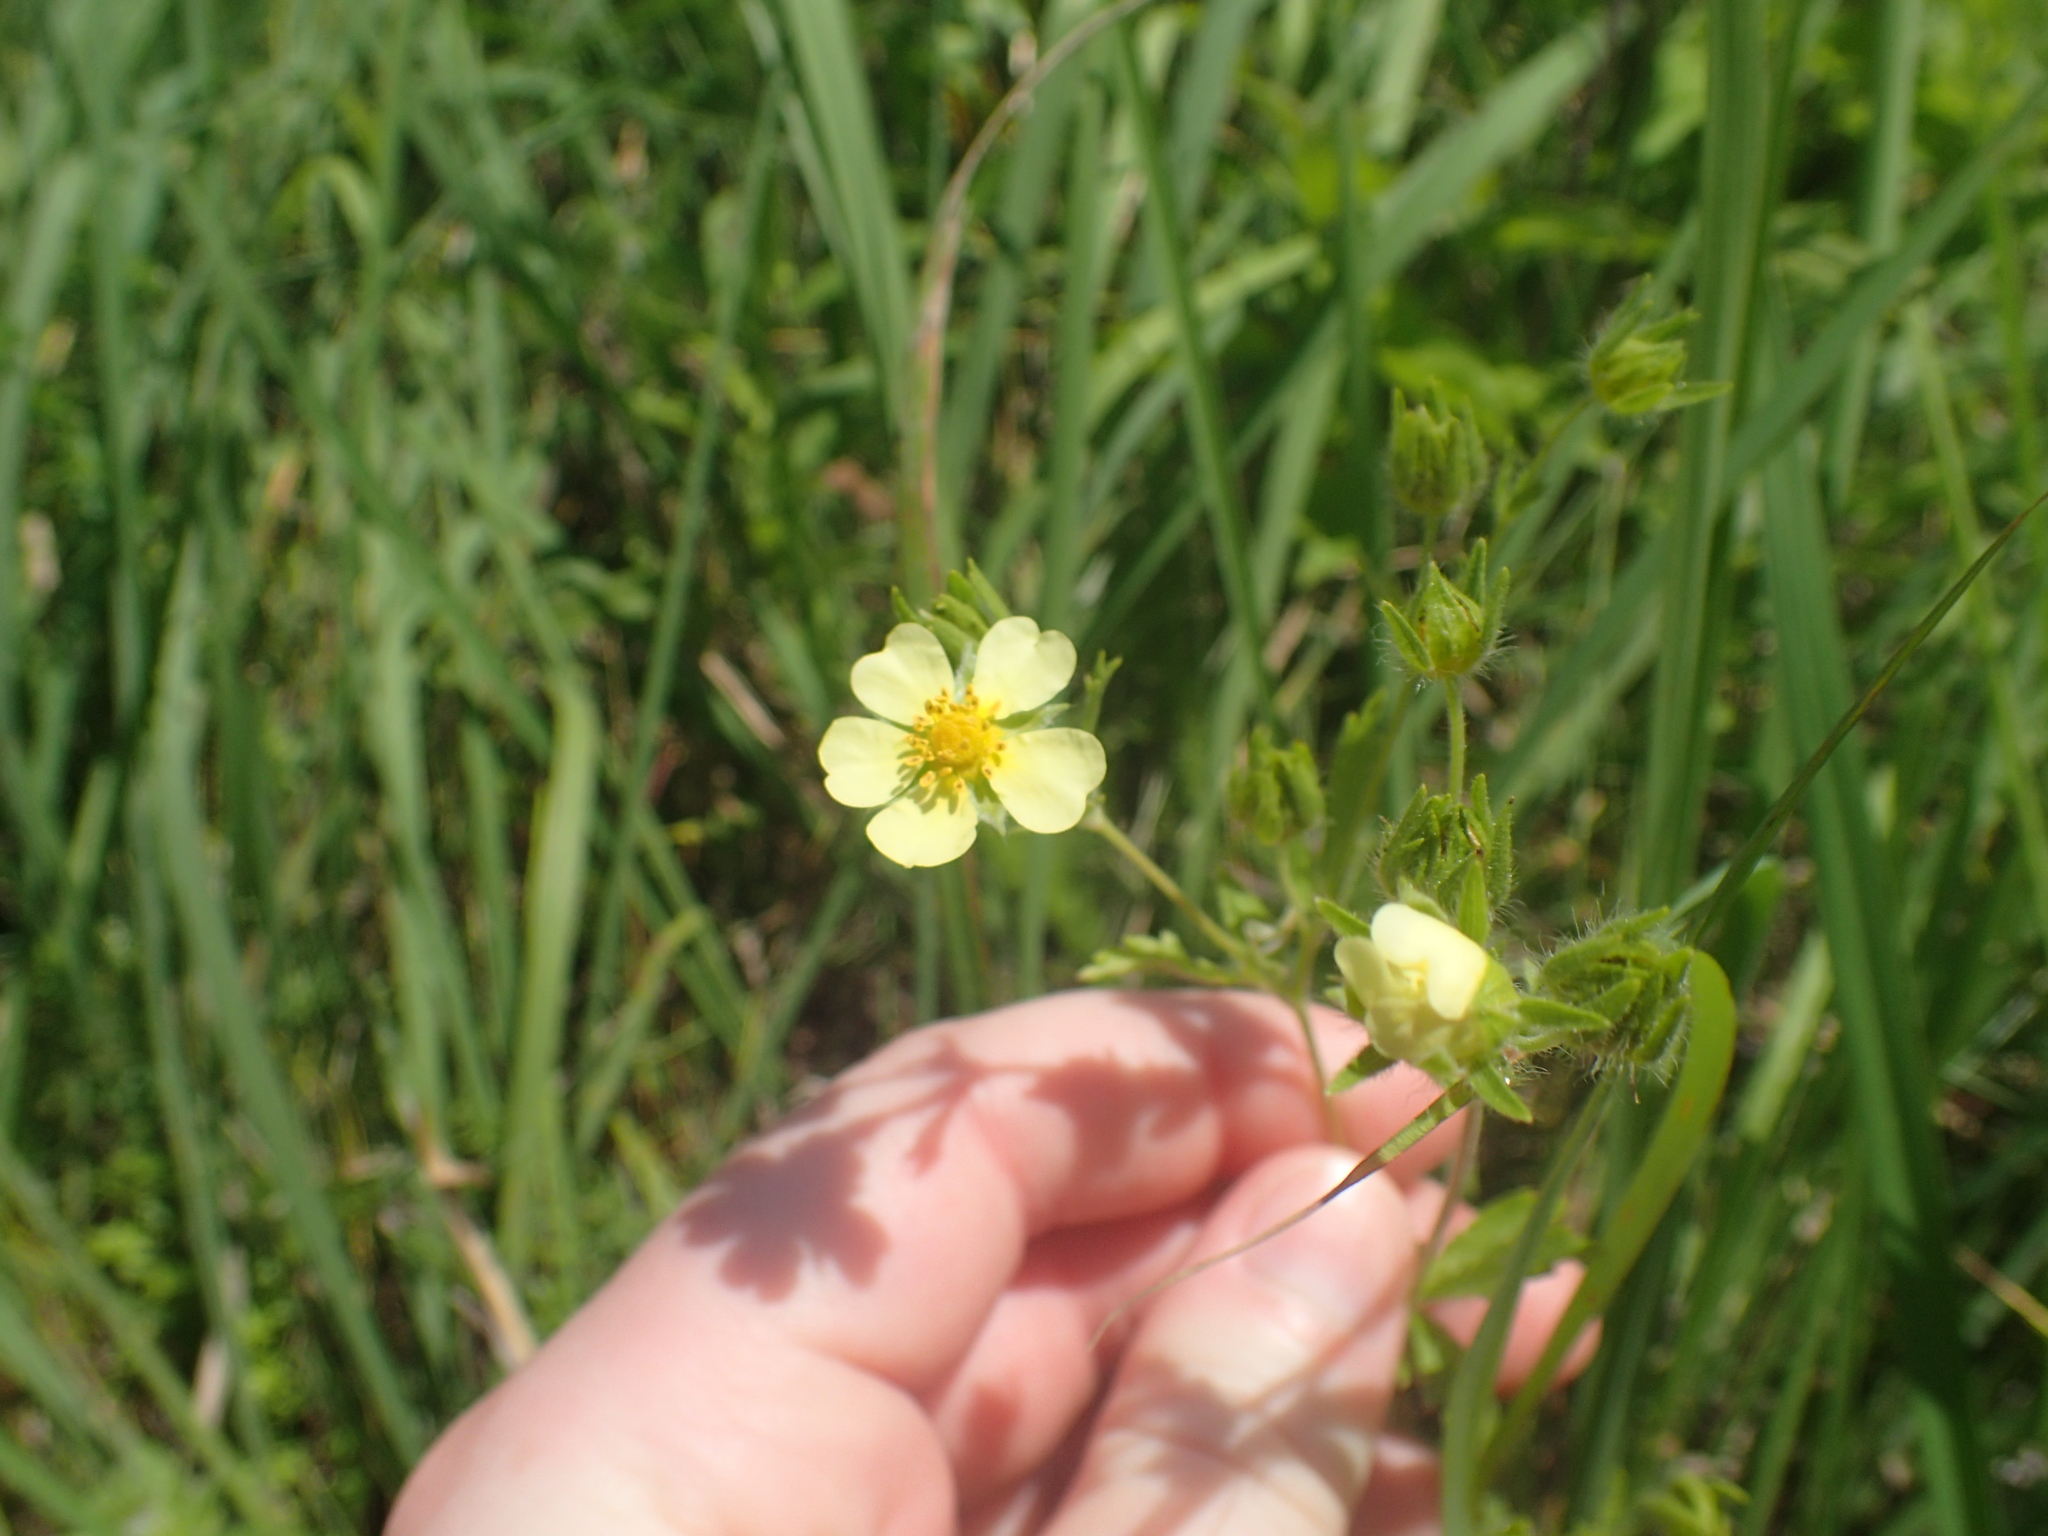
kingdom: Plantae
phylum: Tracheophyta
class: Magnoliopsida
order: Rosales
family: Rosaceae
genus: Potentilla
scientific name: Potentilla recta
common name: Sulphur cinquefoil
